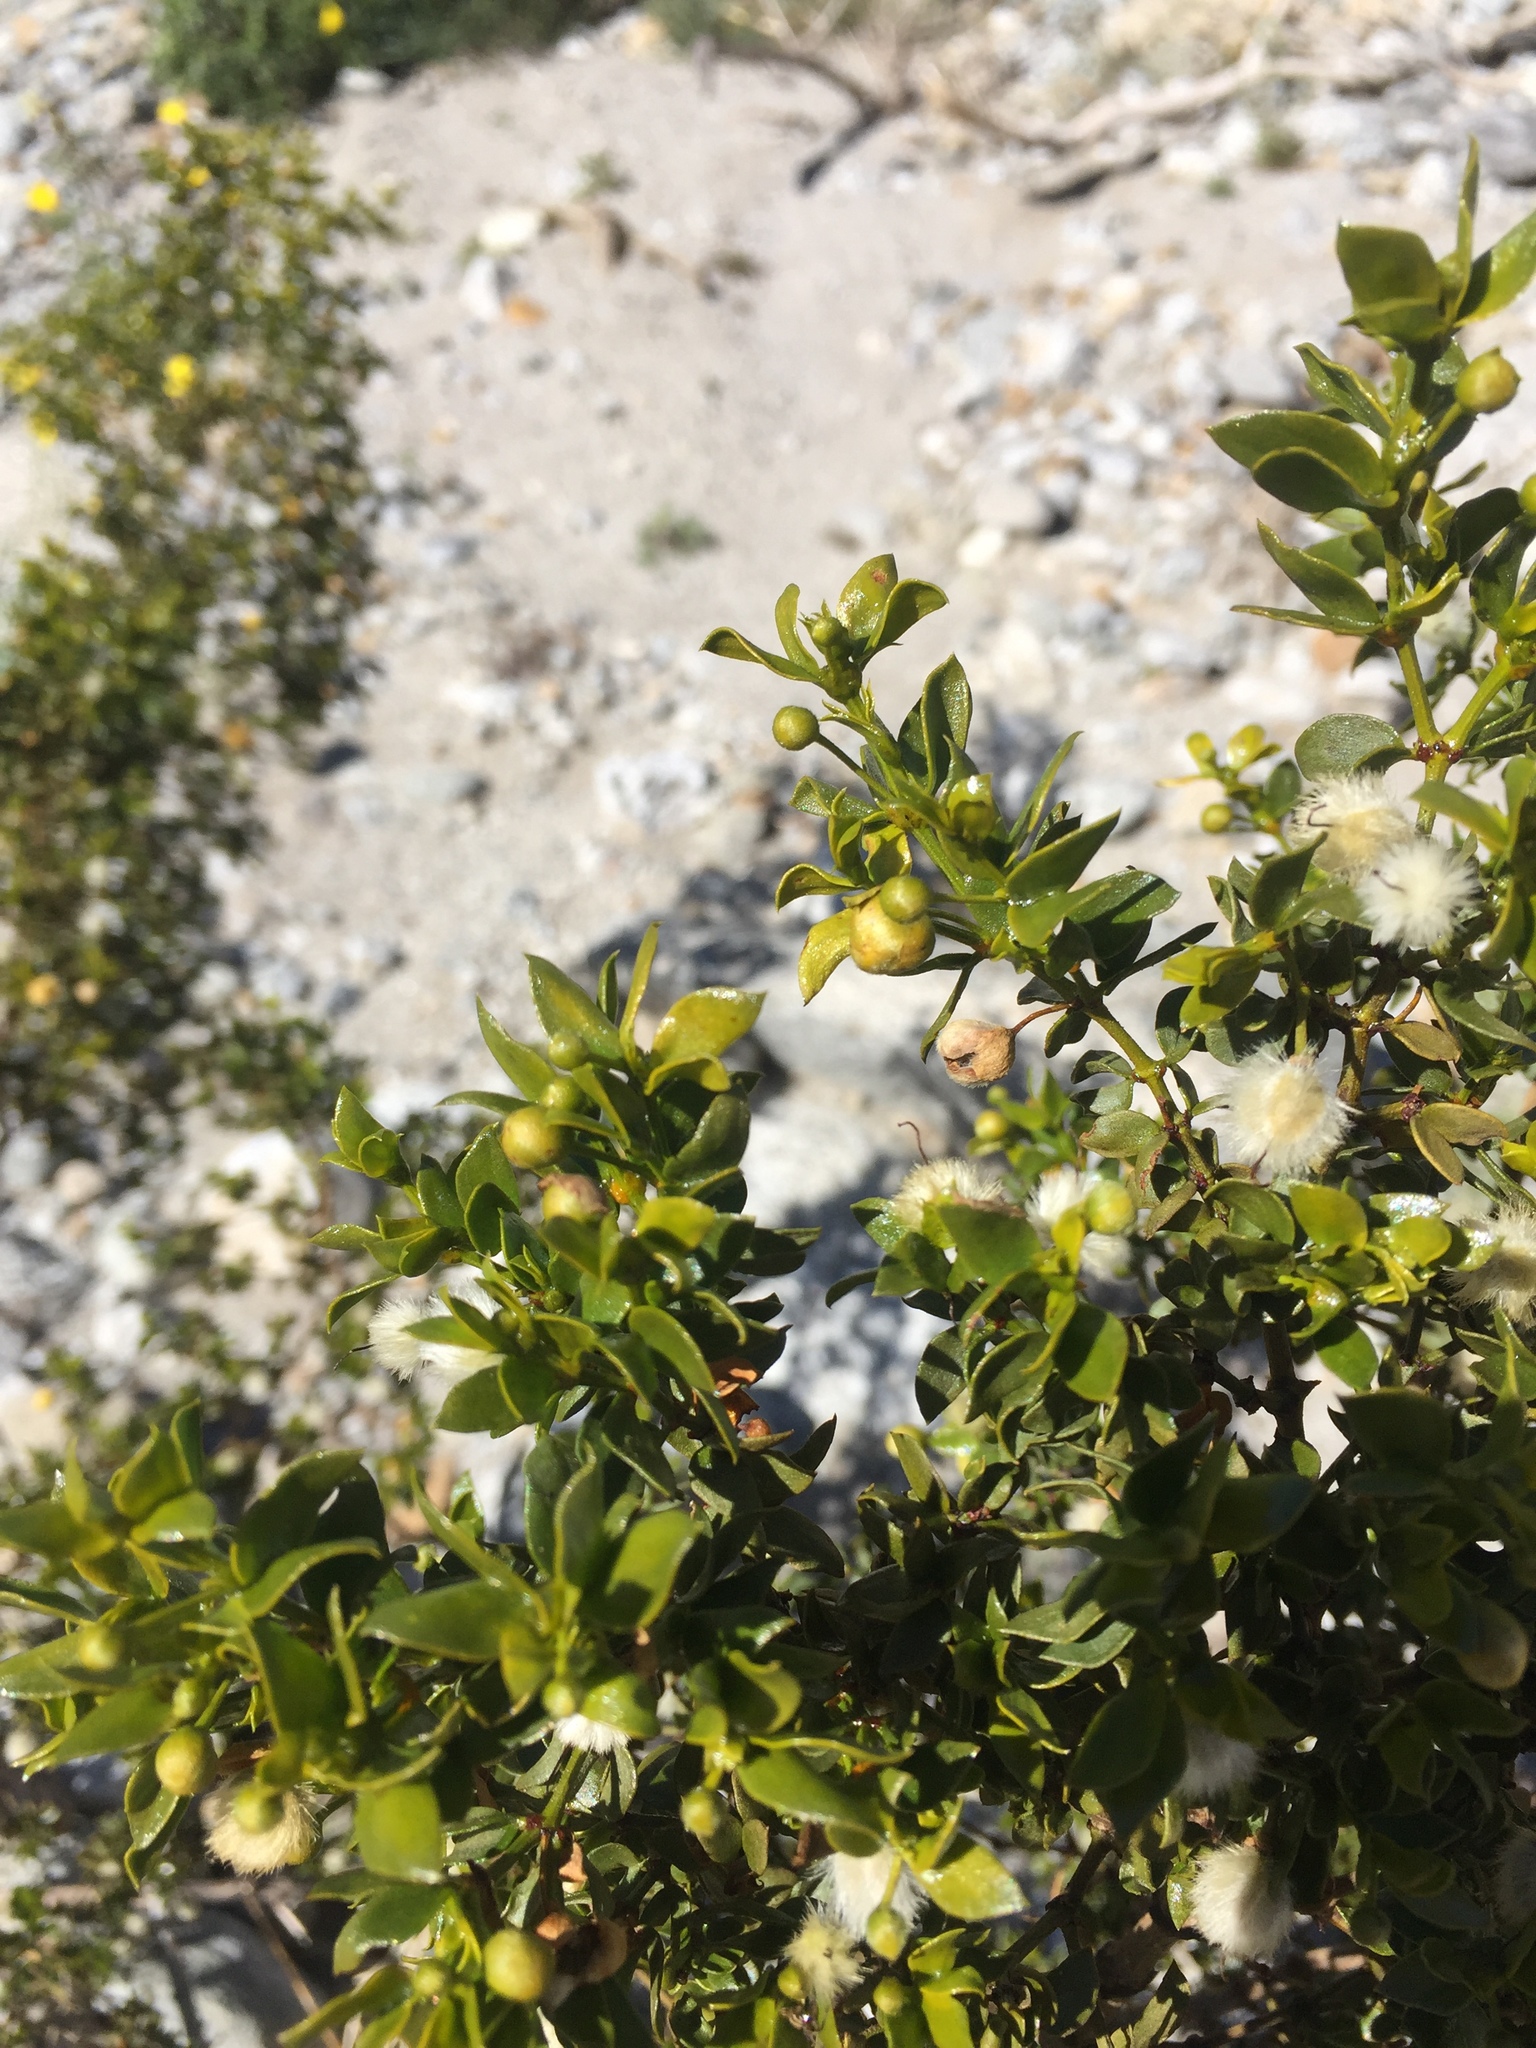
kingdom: Plantae
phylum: Tracheophyta
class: Magnoliopsida
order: Zygophyllales
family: Zygophyllaceae
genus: Larrea
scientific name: Larrea tridentata
